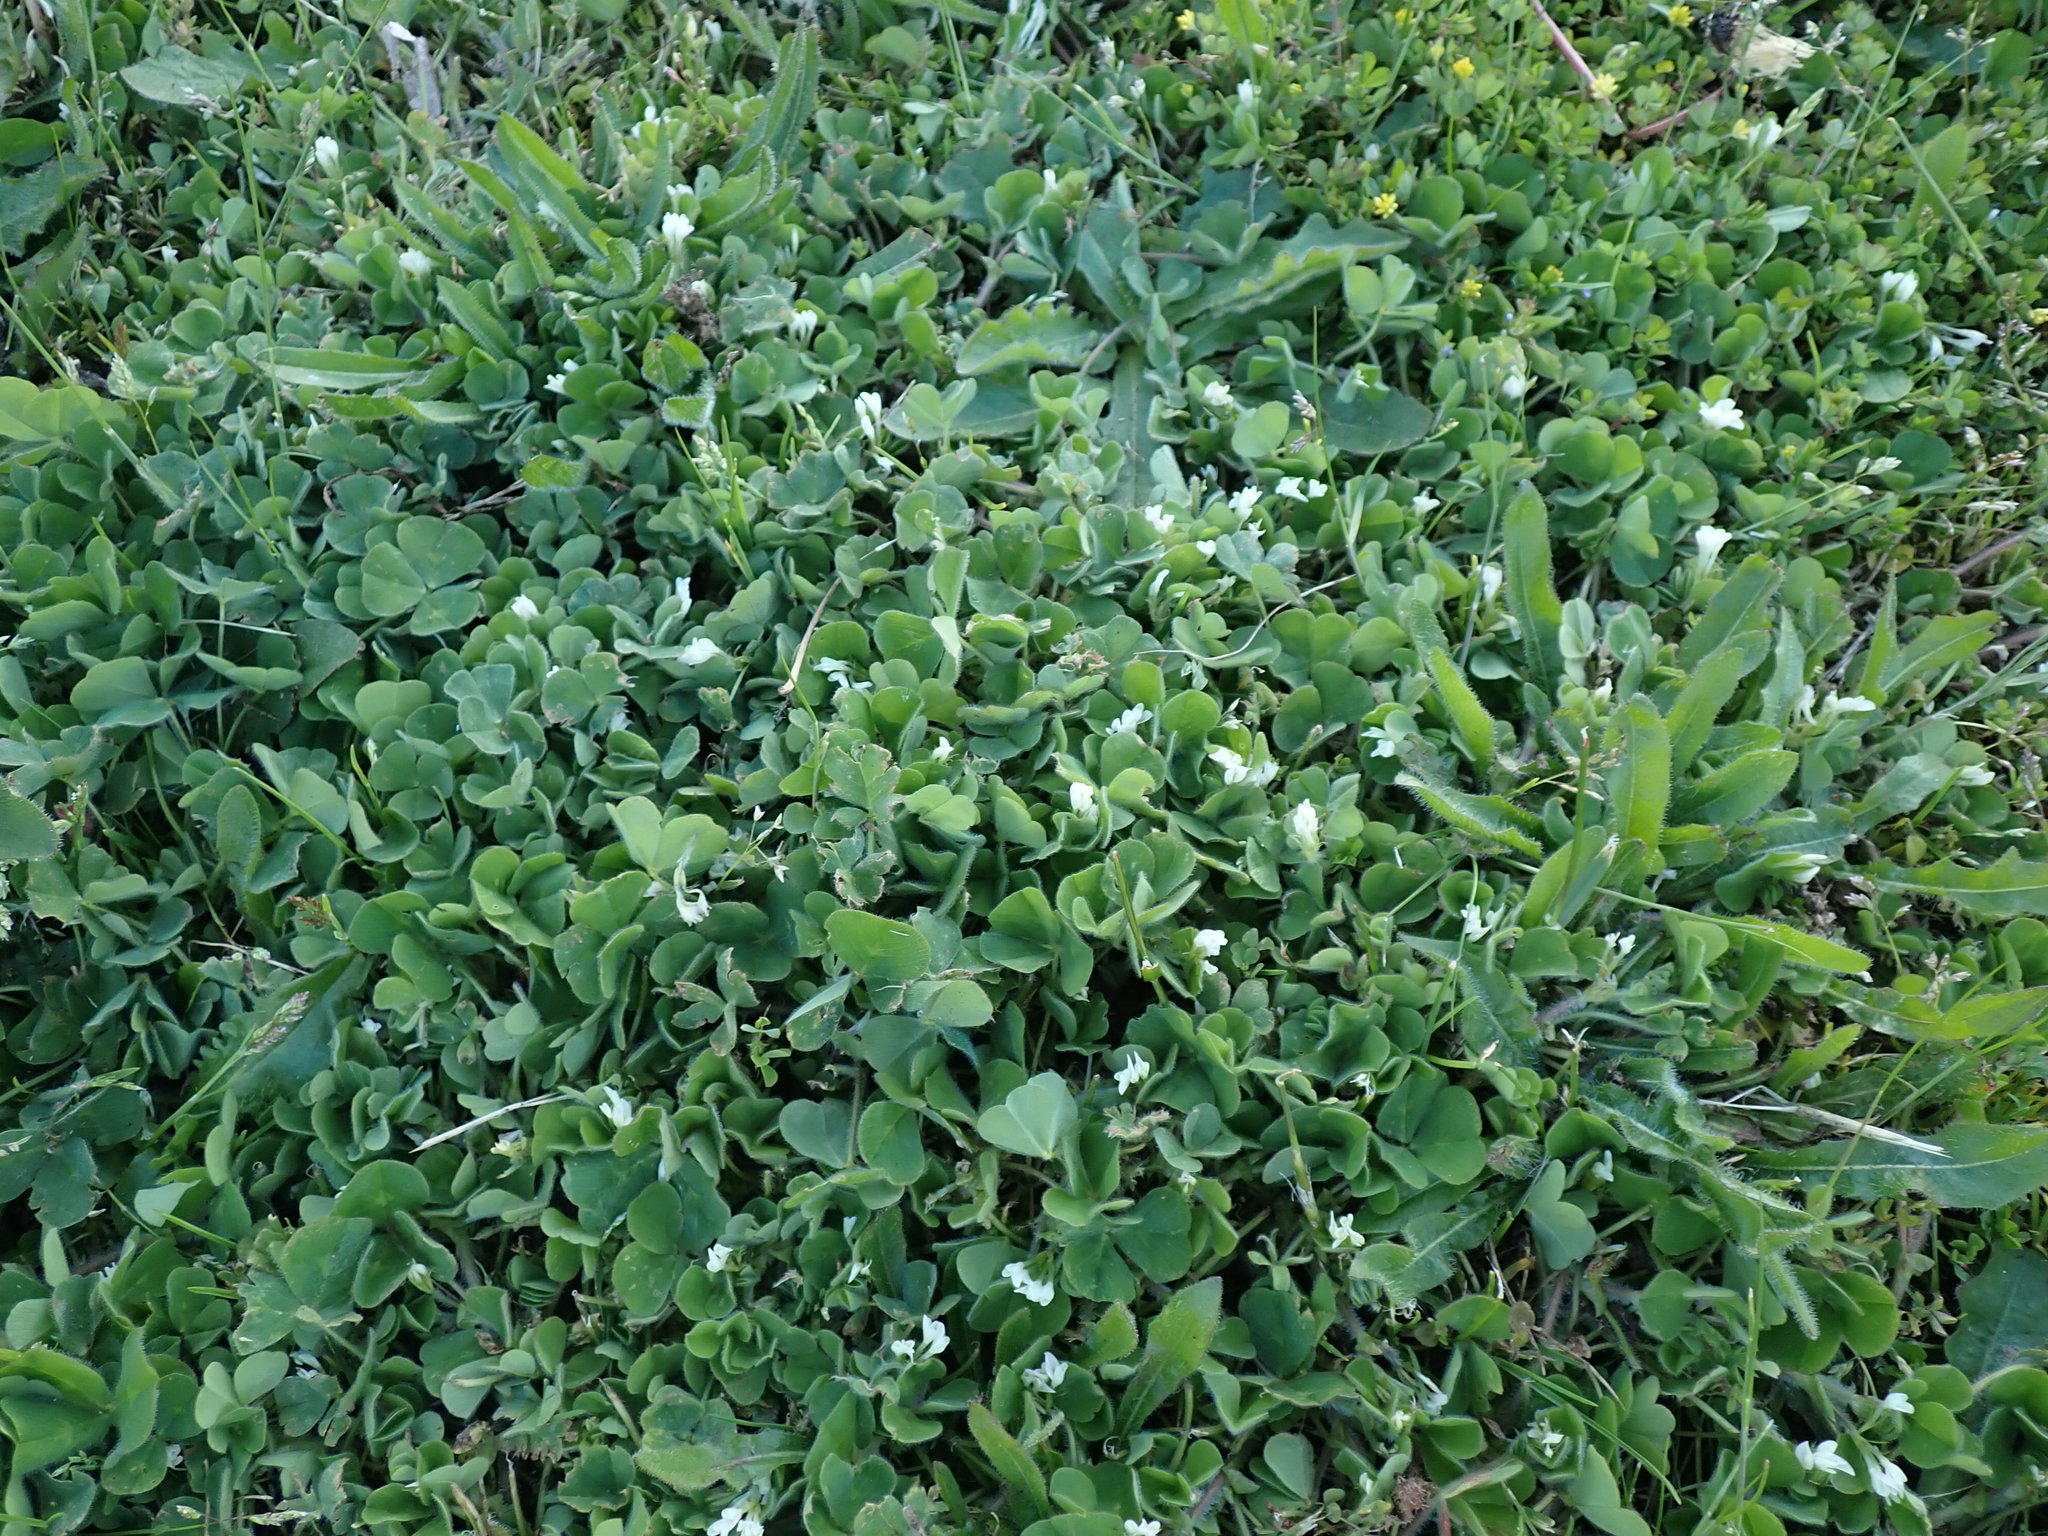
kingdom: Plantae
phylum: Tracheophyta
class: Magnoliopsida
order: Fabales
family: Fabaceae
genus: Trifolium
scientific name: Trifolium subterraneum
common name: Subterranean clover
